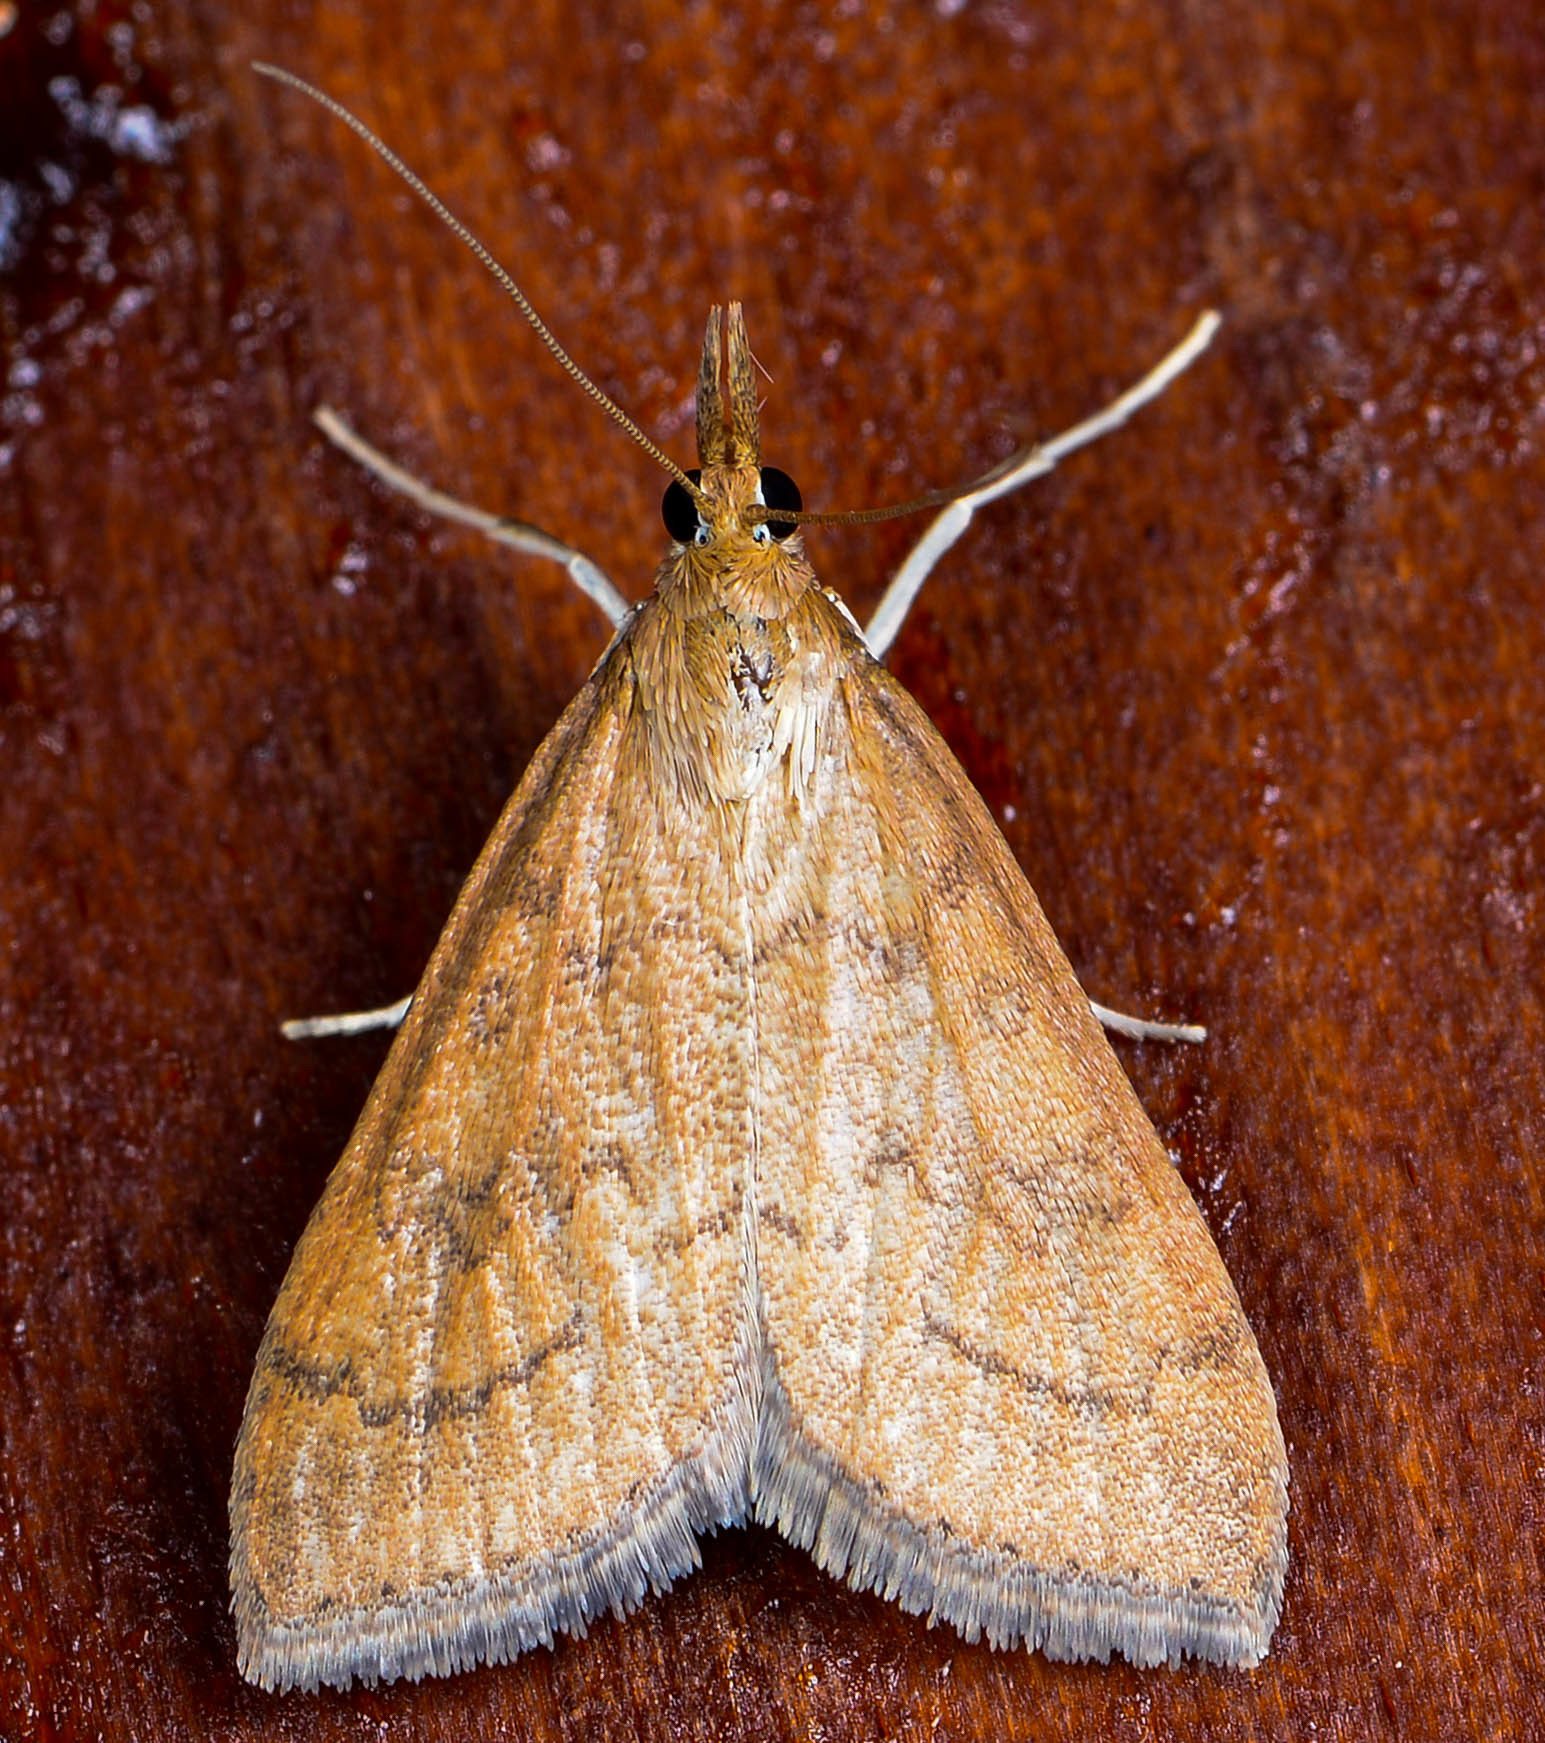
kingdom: Animalia
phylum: Arthropoda
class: Insecta
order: Lepidoptera
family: Crambidae
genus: Udea
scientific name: Udea rubigalis
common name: Celery leaftier moth
